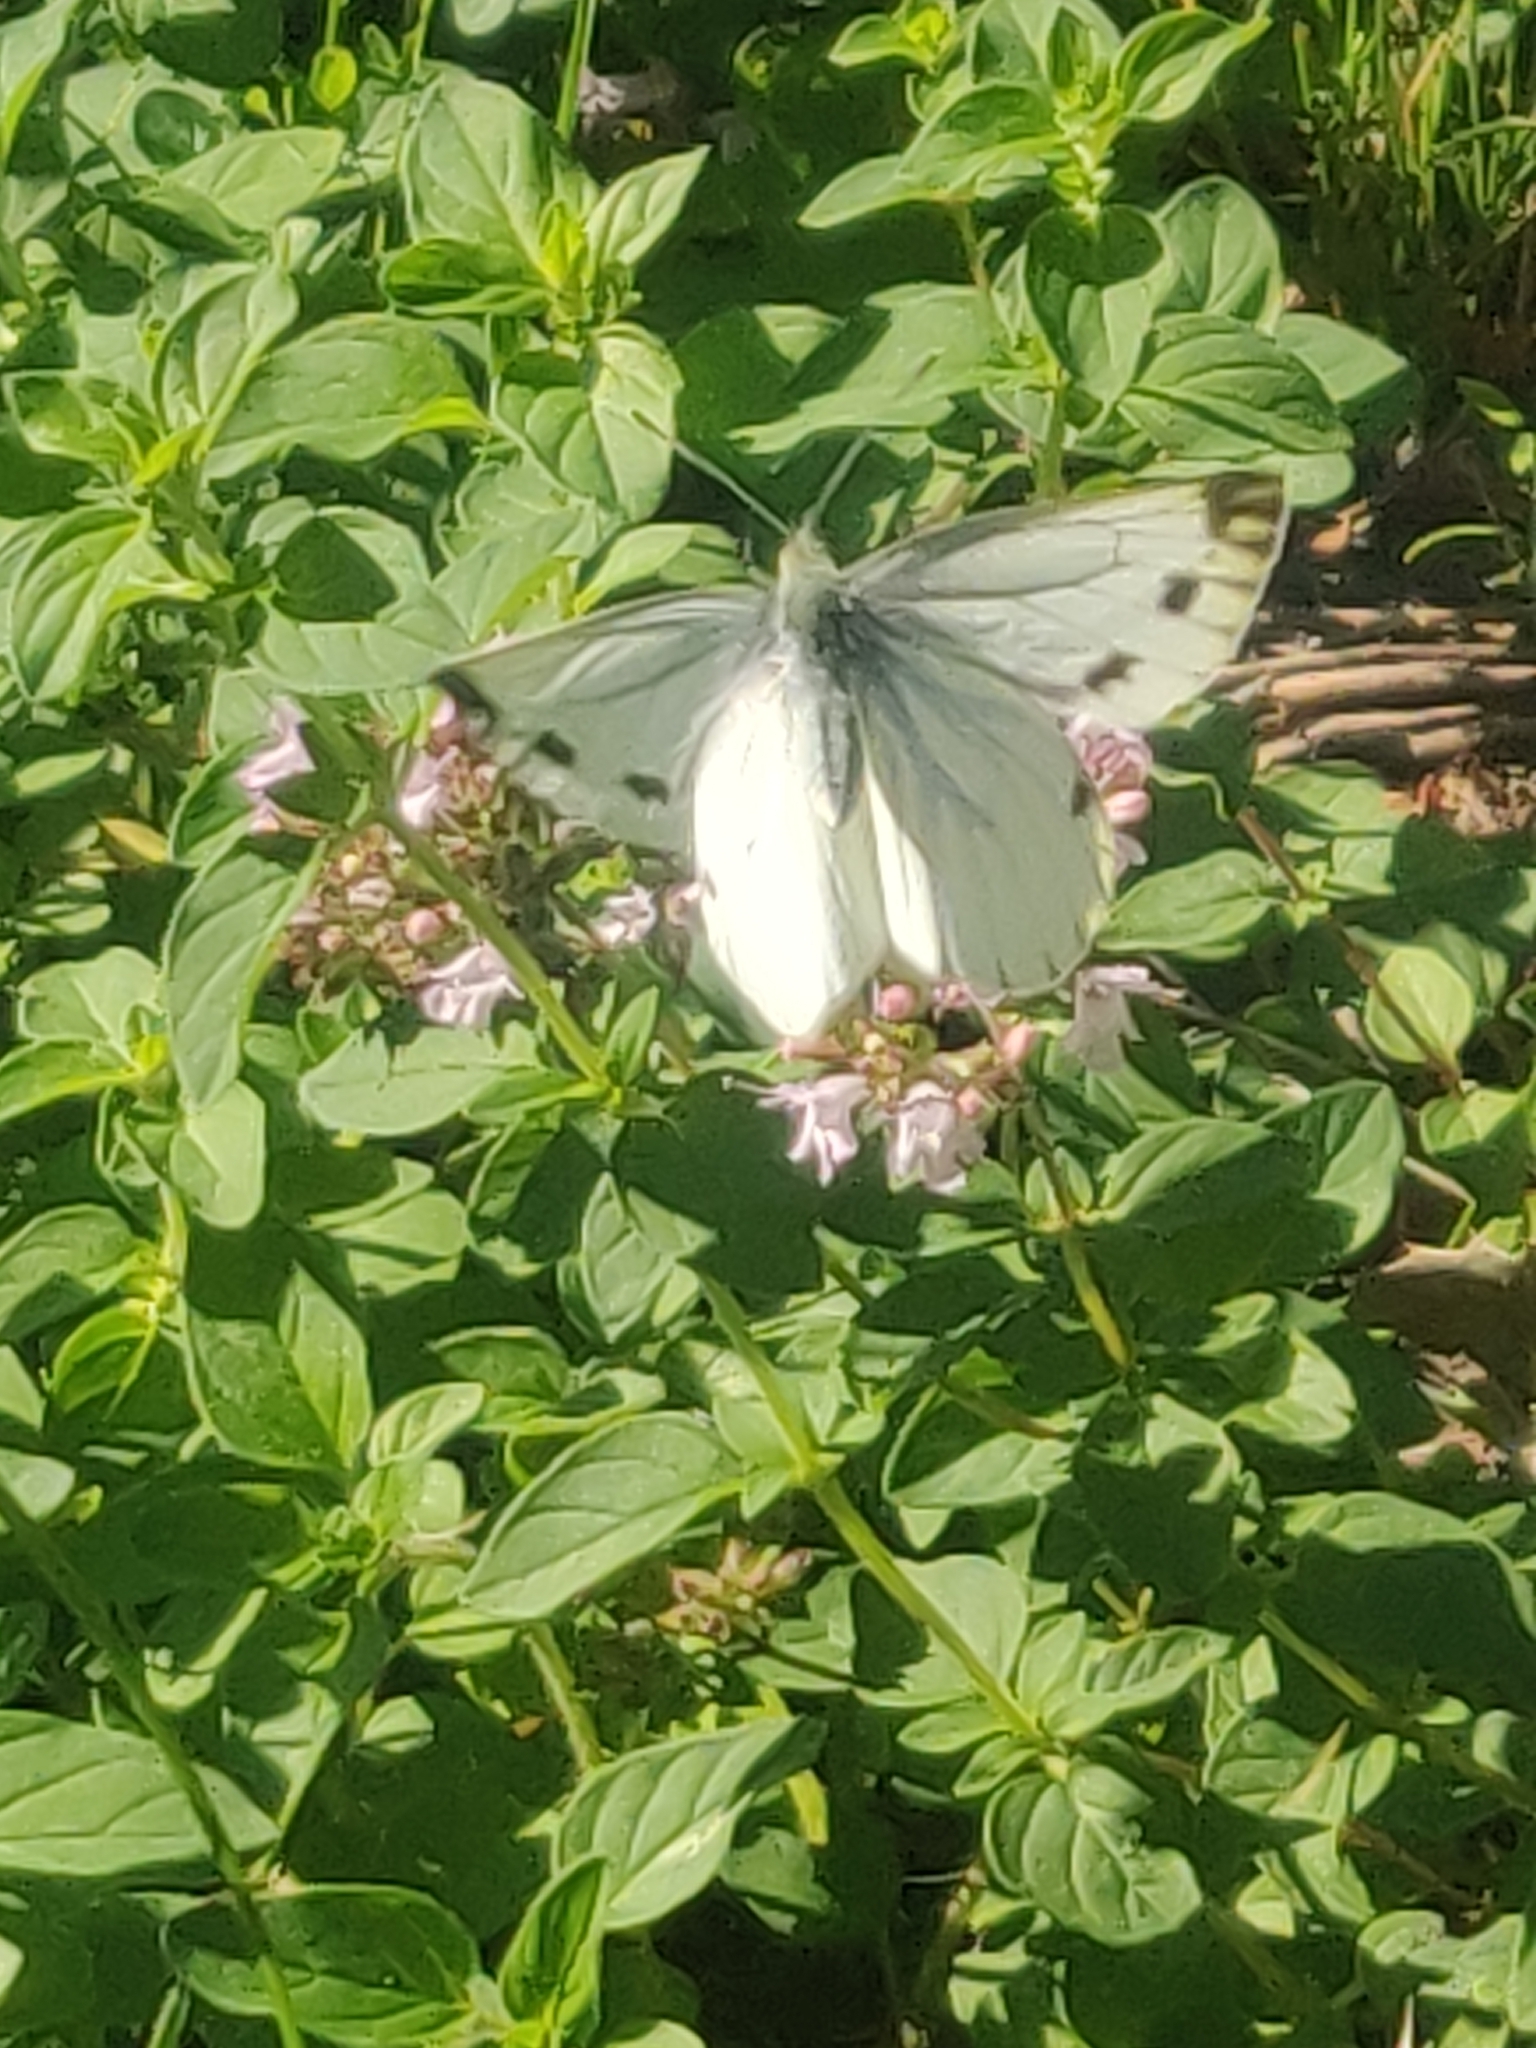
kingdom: Animalia
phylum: Arthropoda
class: Insecta
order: Lepidoptera
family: Pieridae
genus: Pieris
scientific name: Pieris napi
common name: Green-veined white
